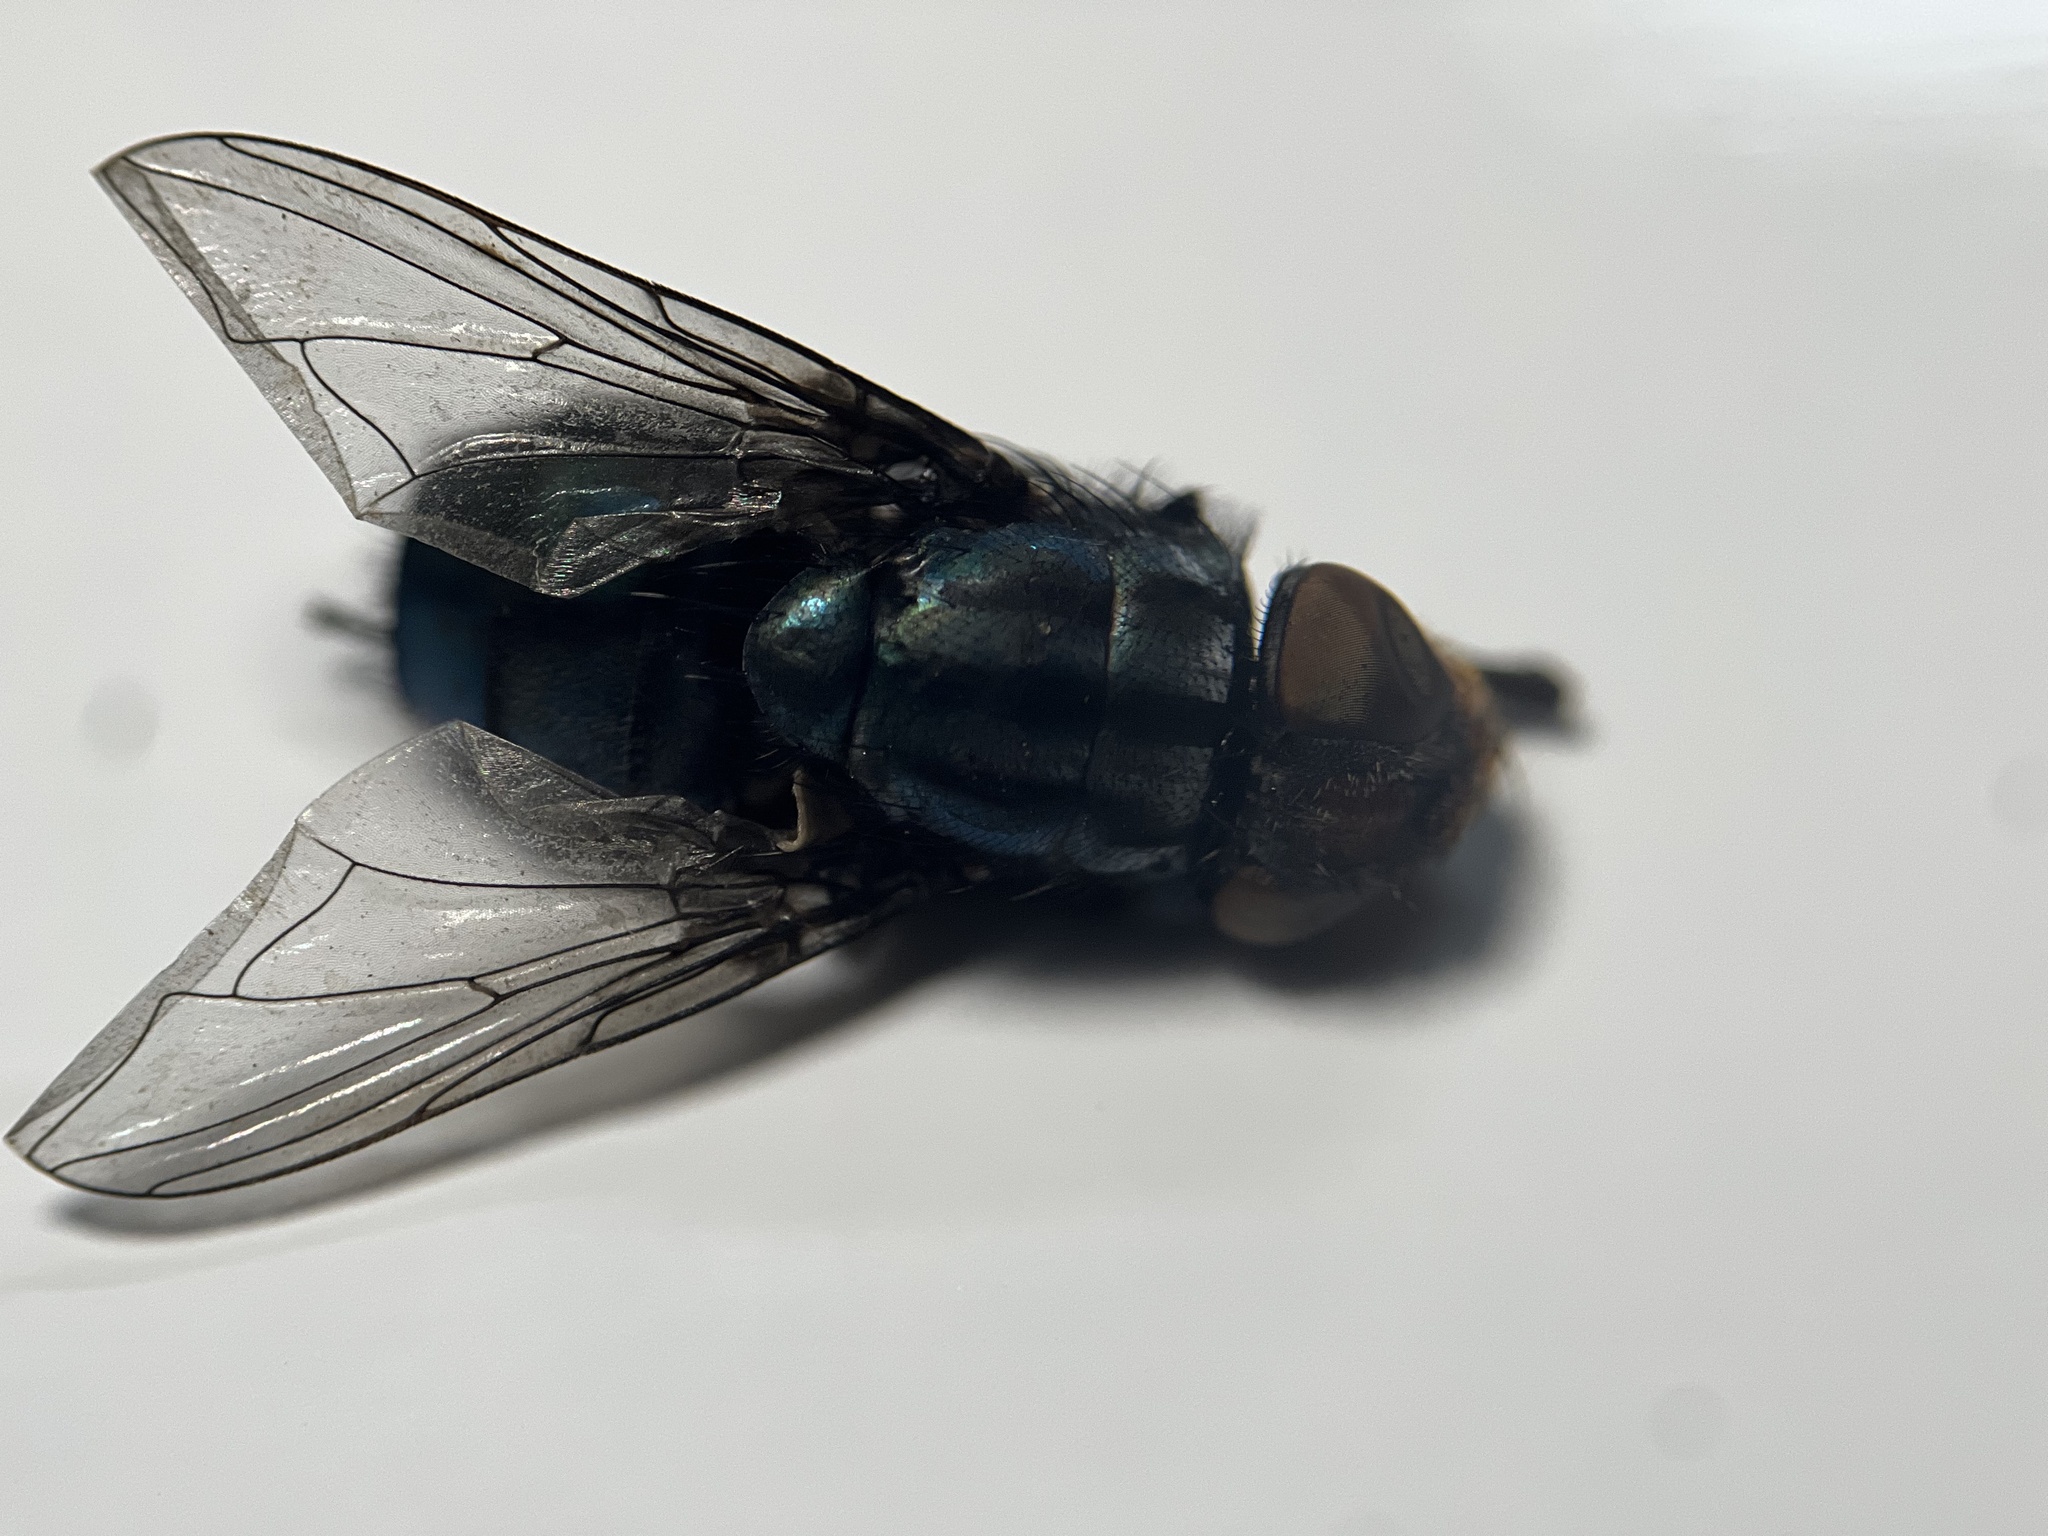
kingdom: Animalia
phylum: Arthropoda
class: Insecta
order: Diptera
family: Calliphoridae
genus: Cochliomyia
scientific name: Cochliomyia macellaria
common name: Secondary screwworm
